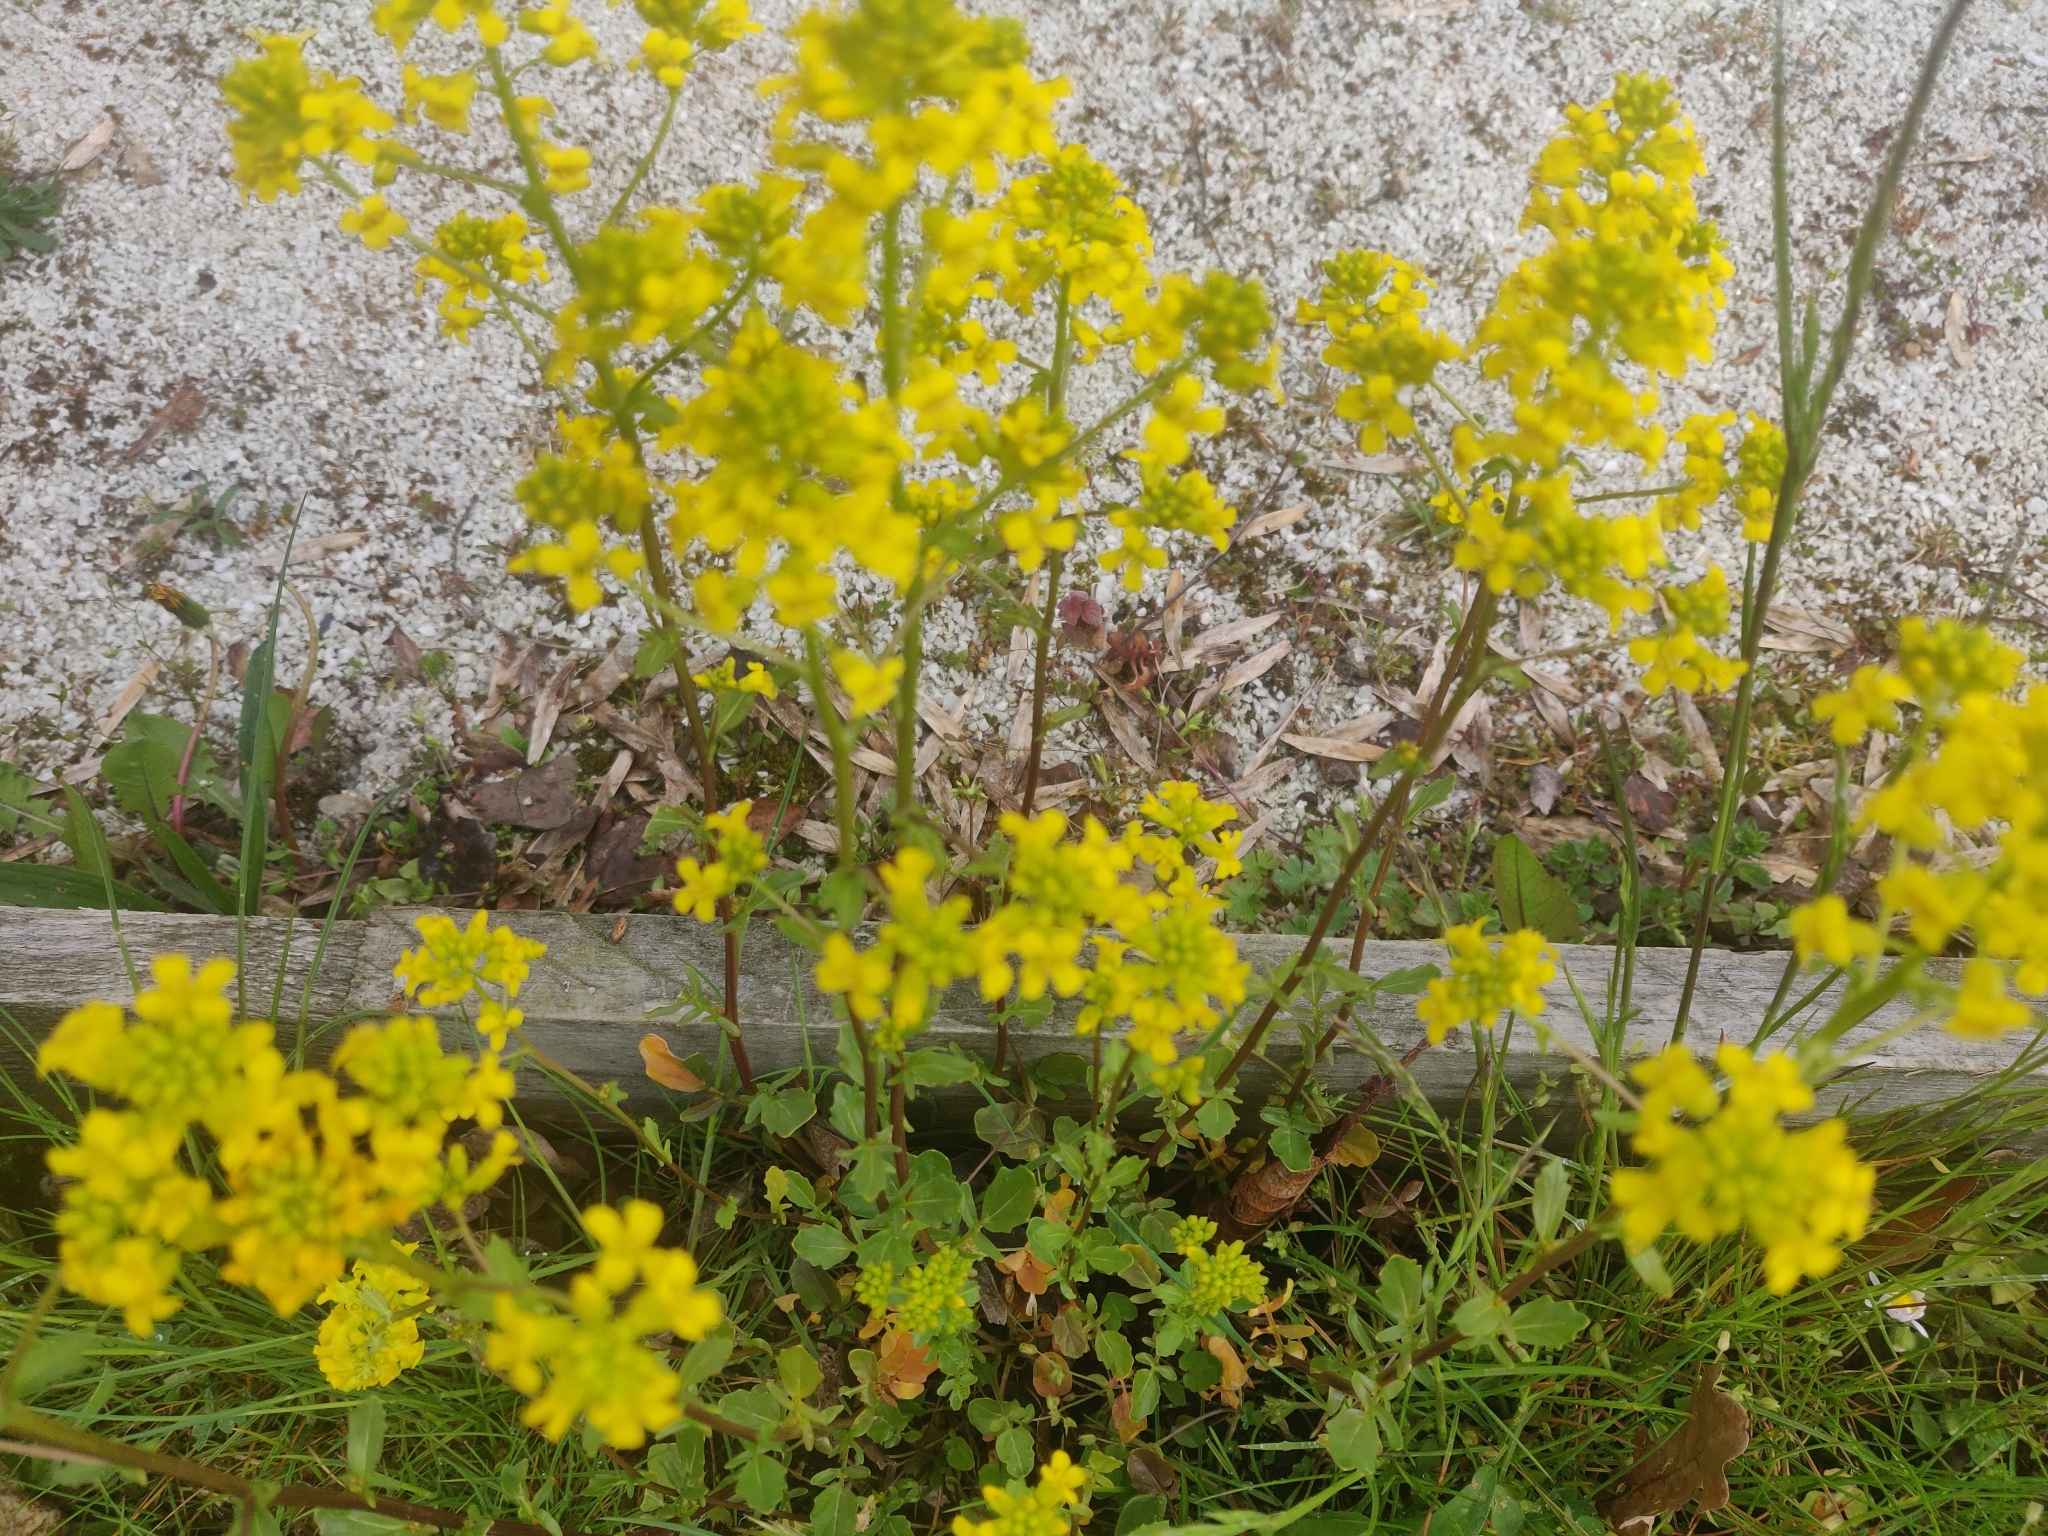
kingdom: Plantae
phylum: Tracheophyta
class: Magnoliopsida
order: Brassicales
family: Brassicaceae
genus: Barbarea
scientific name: Barbarea vulgaris
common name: Cressy-greens
